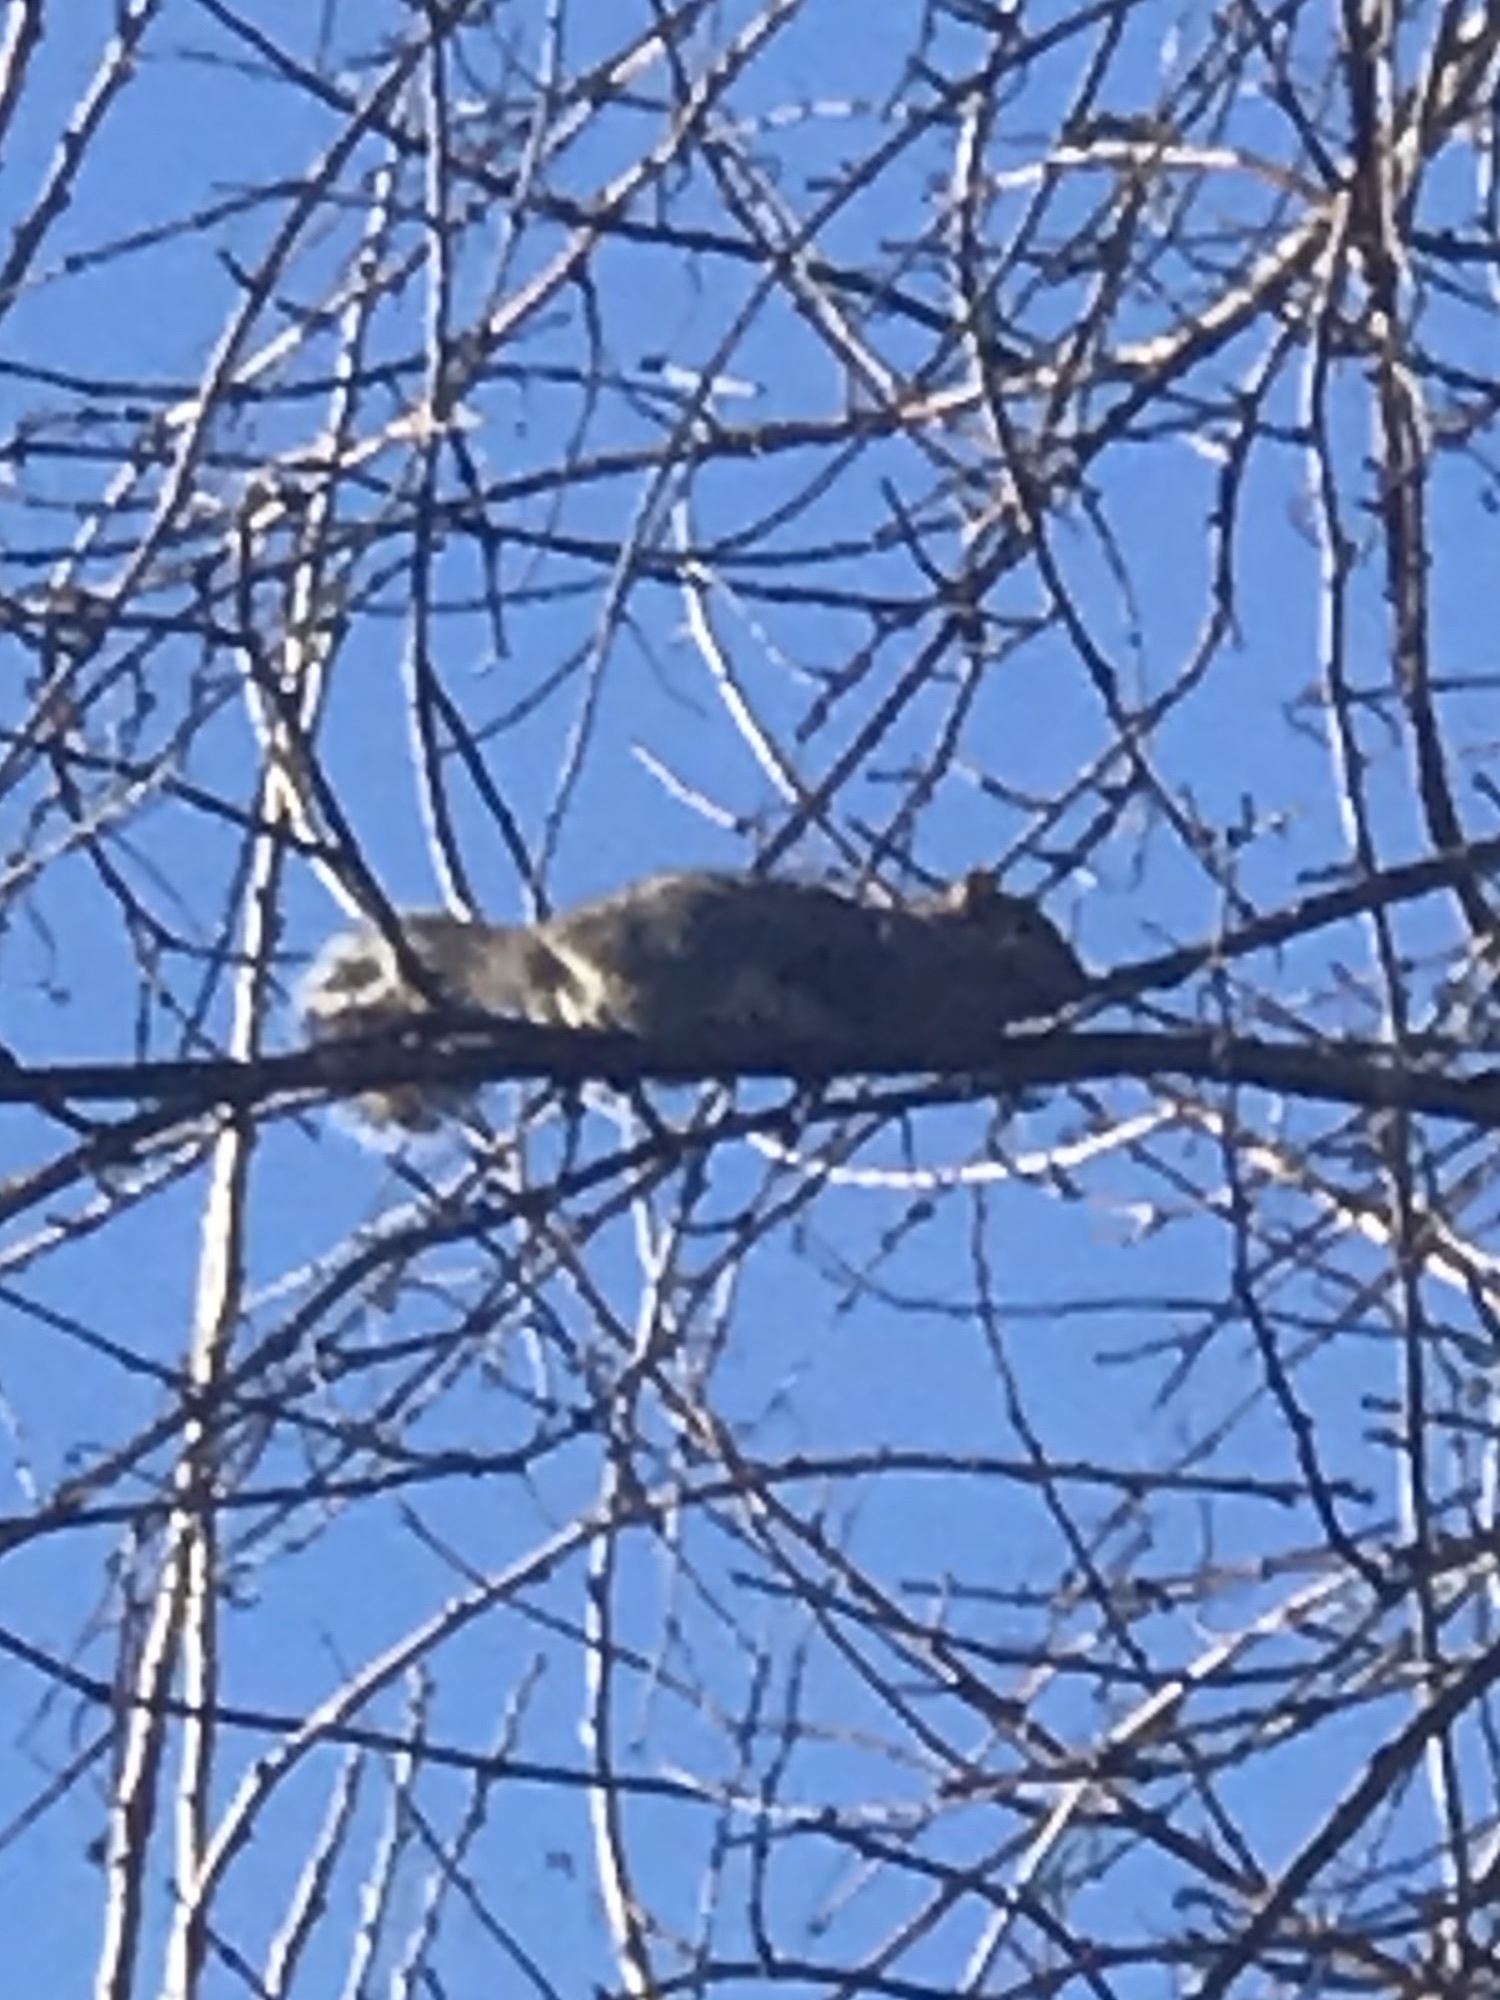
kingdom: Animalia
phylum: Chordata
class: Mammalia
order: Rodentia
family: Sciuridae
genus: Sciurus
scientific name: Sciurus carolinensis
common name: Eastern gray squirrel
